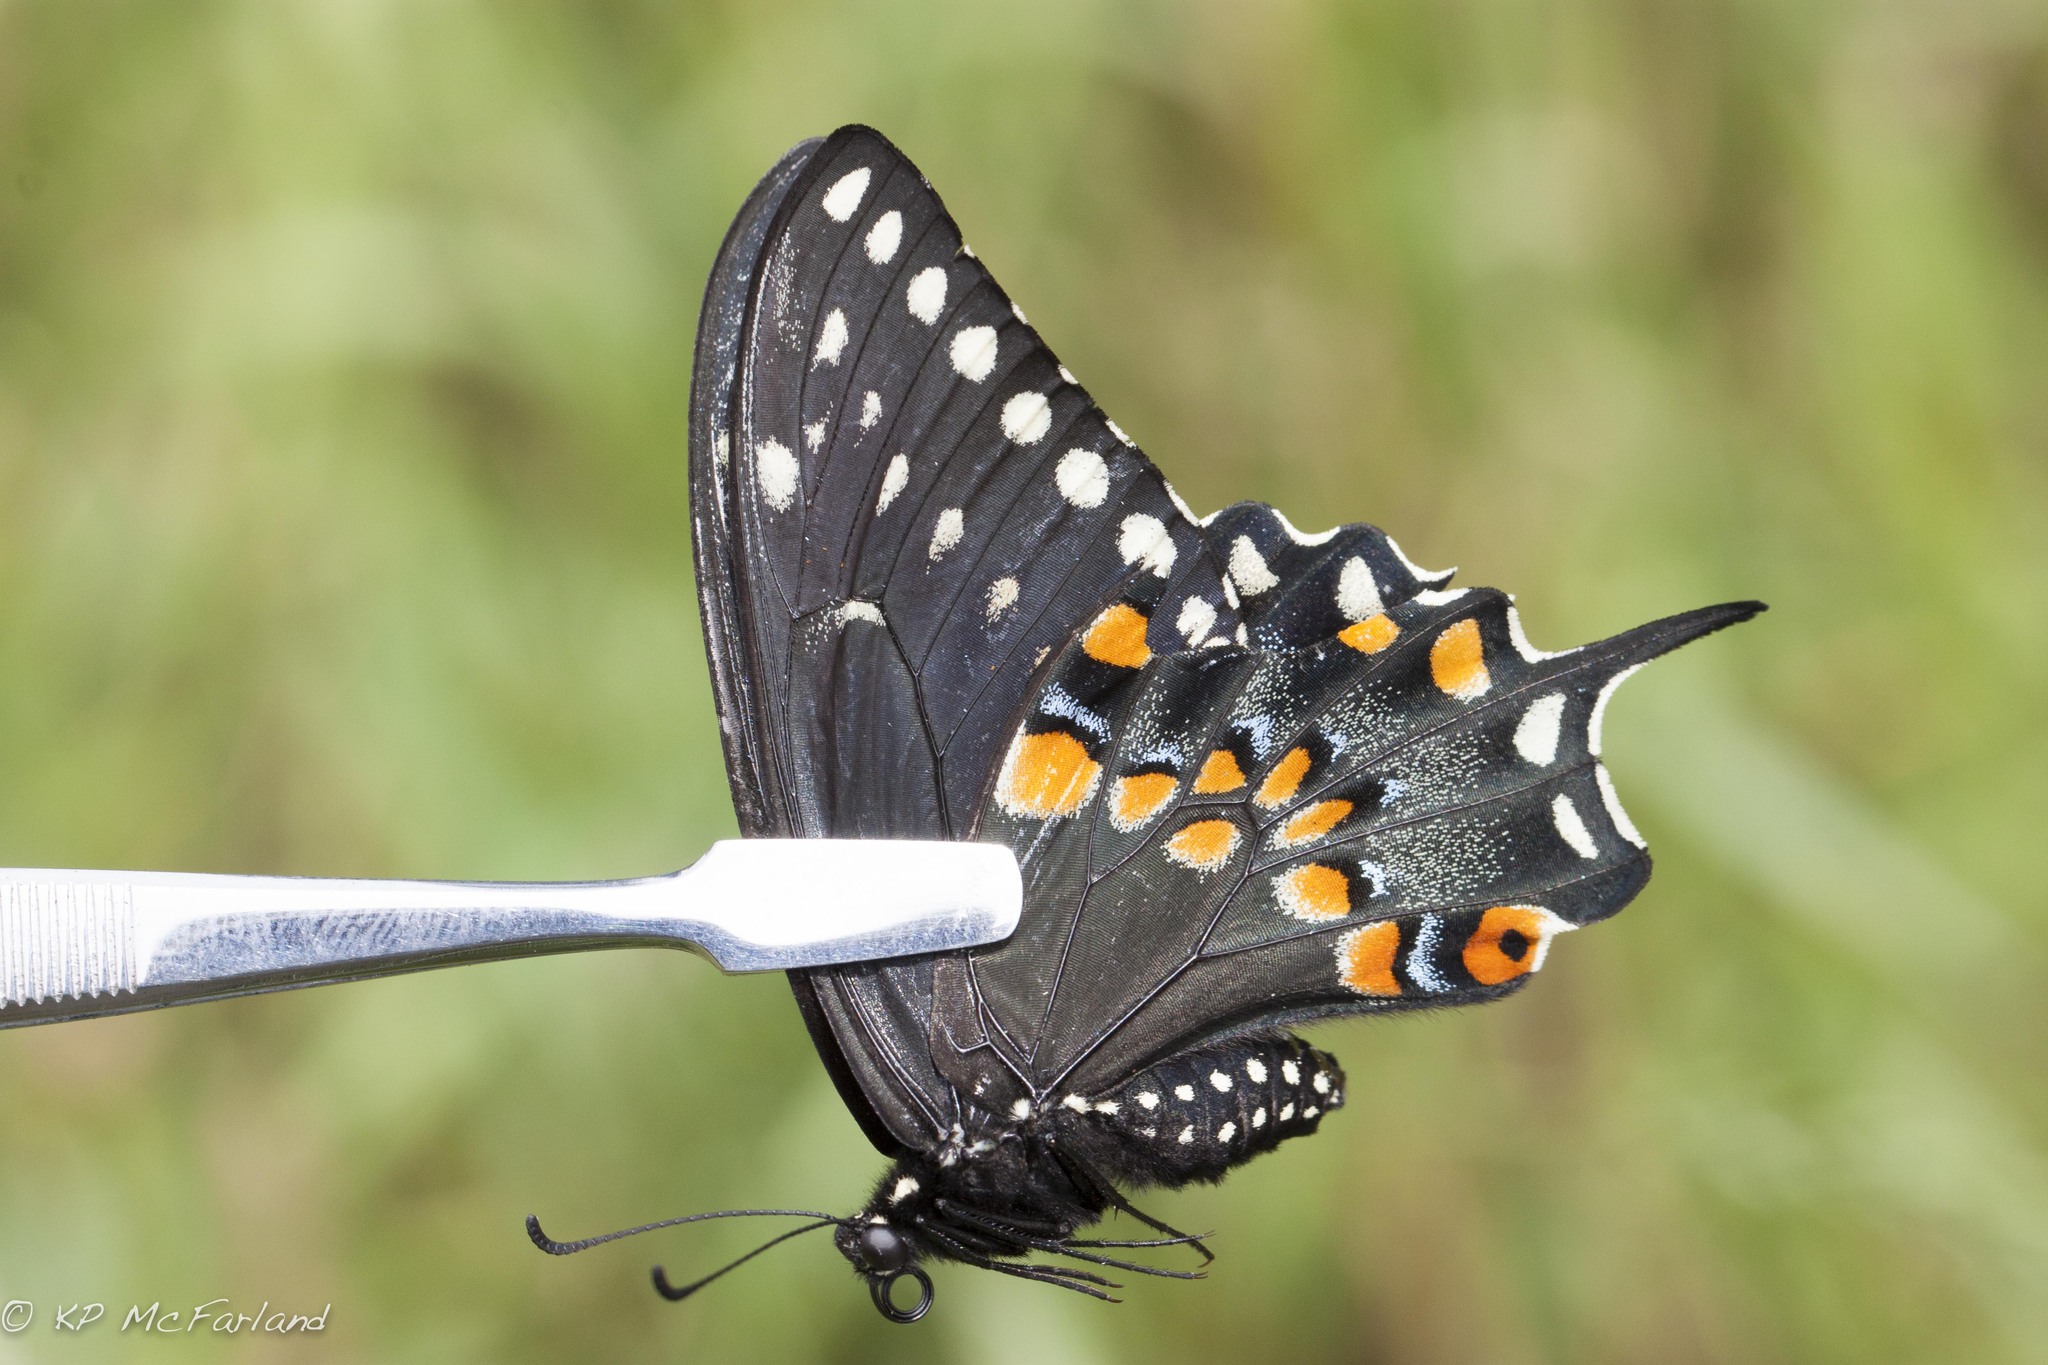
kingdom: Animalia
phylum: Arthropoda
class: Insecta
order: Lepidoptera
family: Papilionidae
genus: Papilio
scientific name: Papilio polyxenes
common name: Black swallowtail
